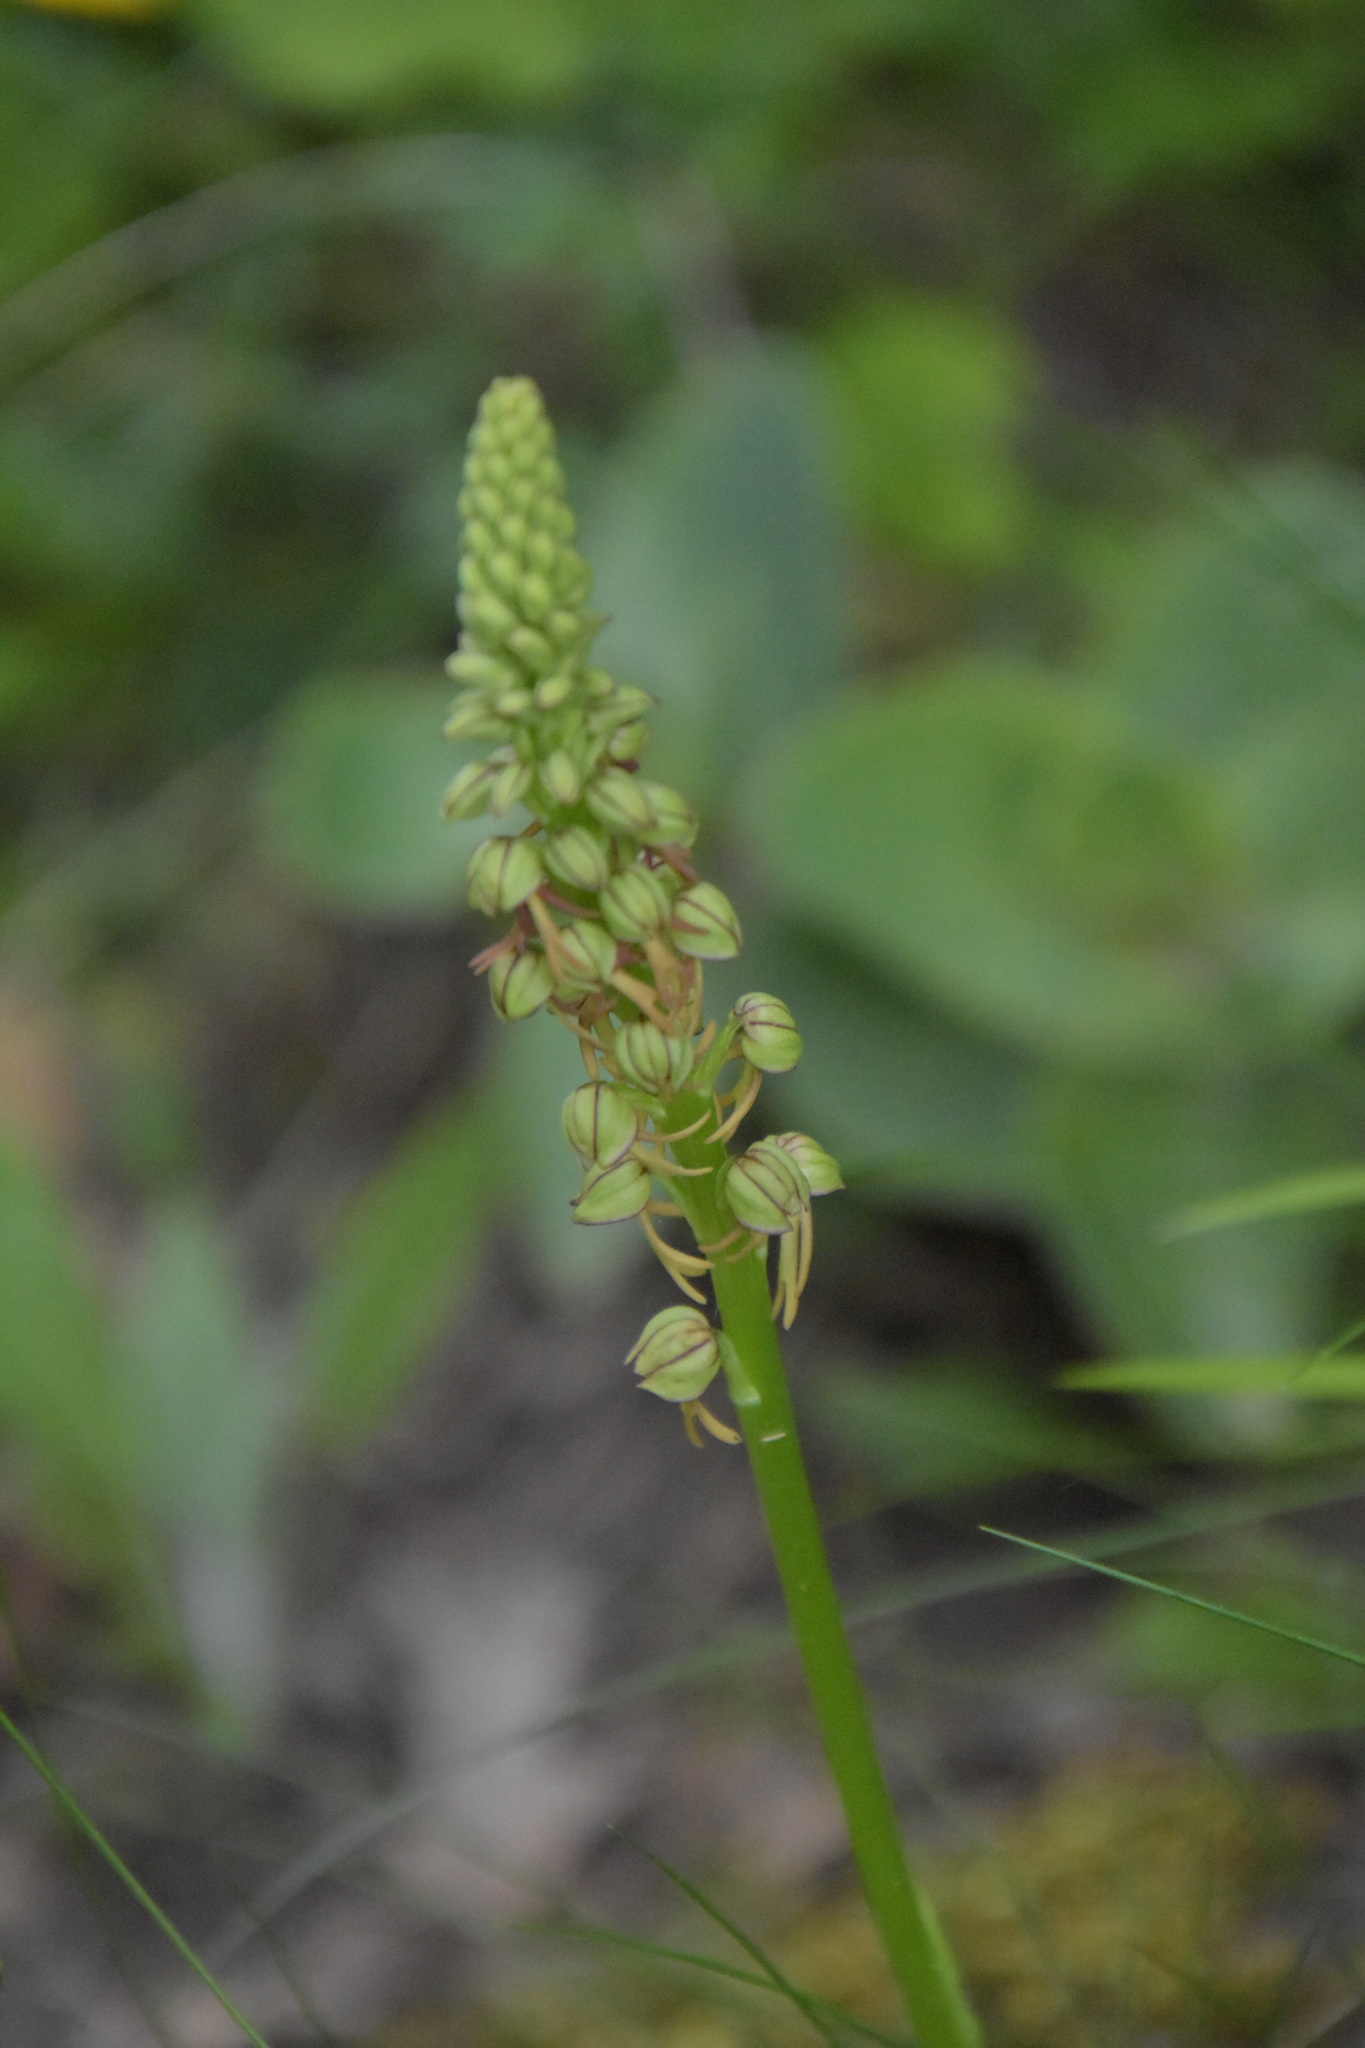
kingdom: Plantae
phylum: Tracheophyta
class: Liliopsida
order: Asparagales
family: Orchidaceae
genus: Orchis
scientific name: Orchis anthropophora
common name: Man orchid
